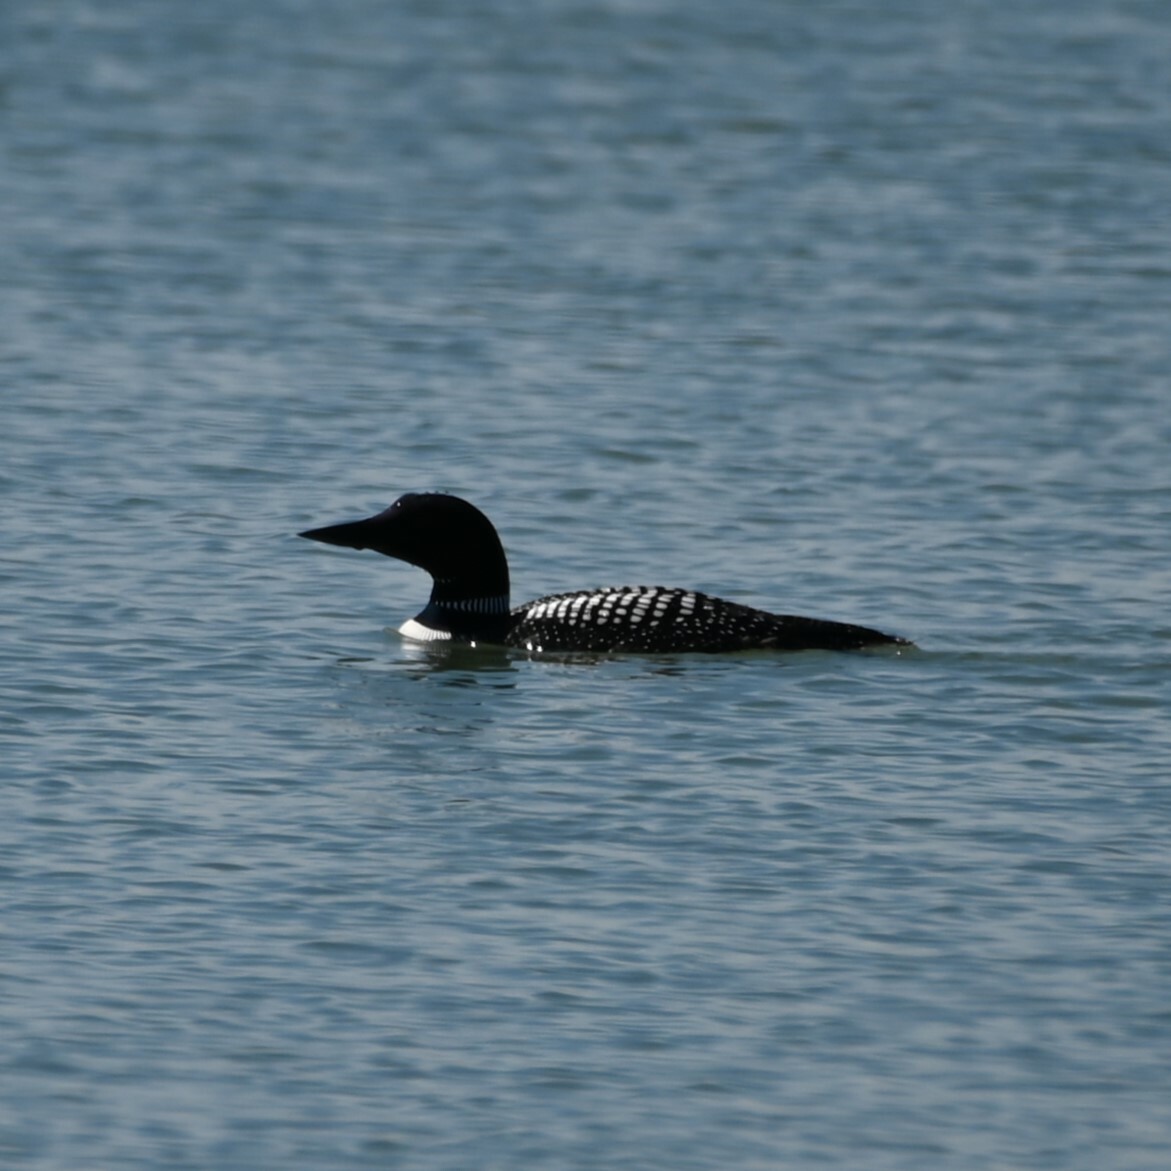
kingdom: Animalia
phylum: Chordata
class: Aves
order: Gaviiformes
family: Gaviidae
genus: Gavia
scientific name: Gavia immer
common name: Common loon
